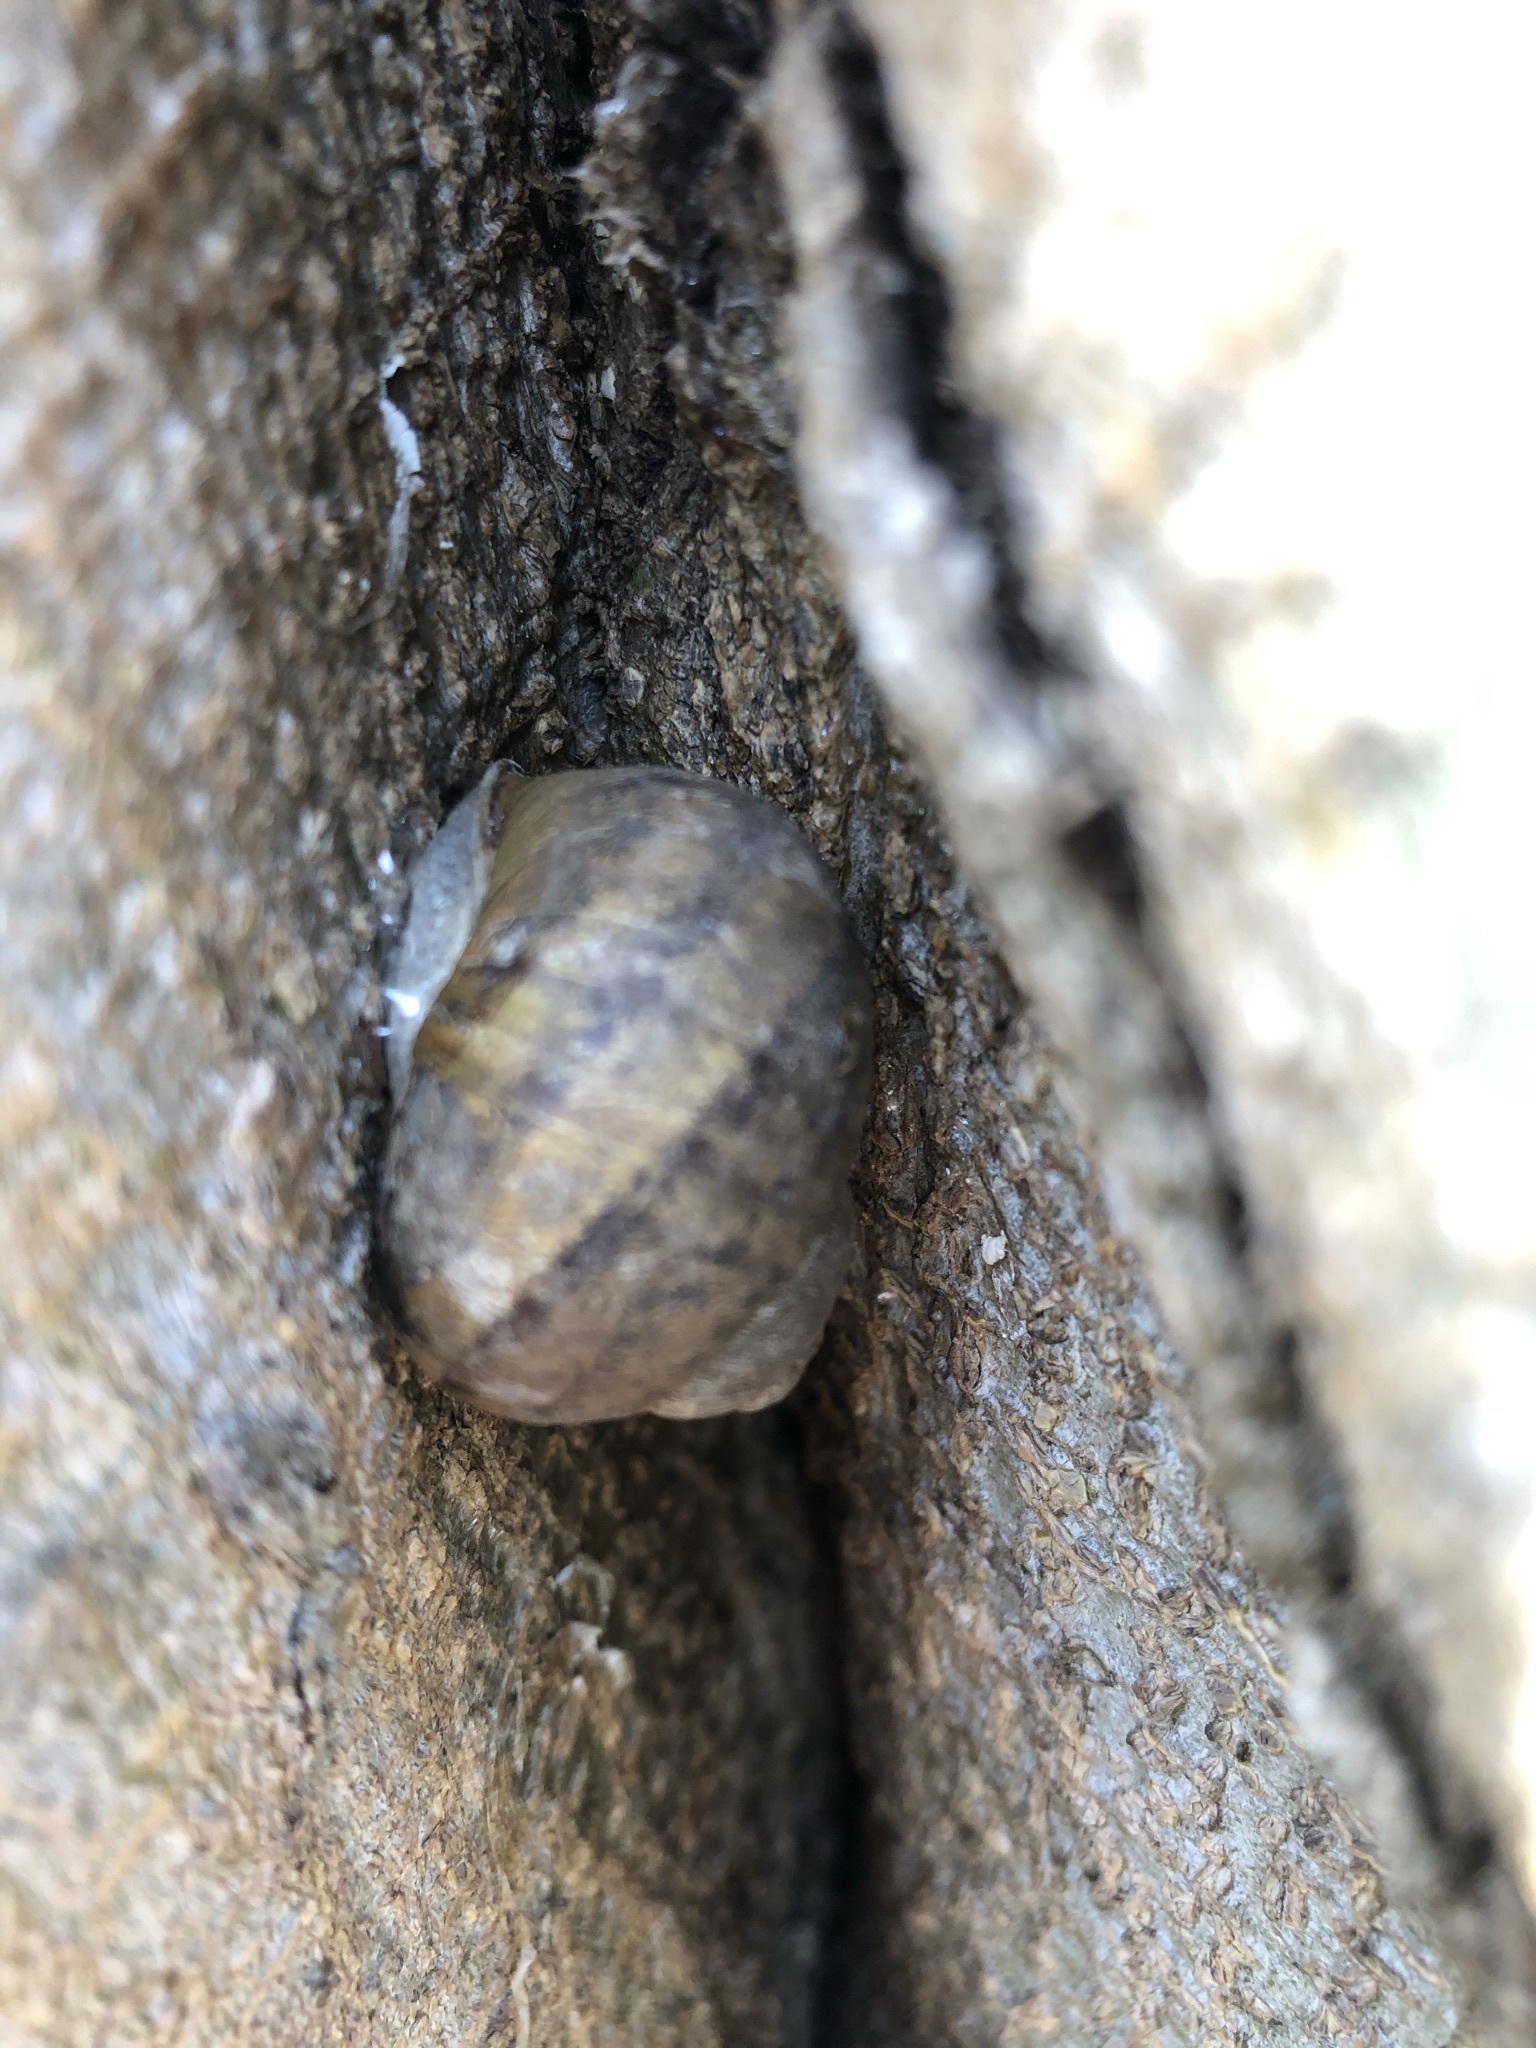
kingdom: Animalia
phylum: Mollusca
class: Gastropoda
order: Stylommatophora
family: Helicidae
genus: Cornu
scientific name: Cornu aspersum
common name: Brown garden snail
